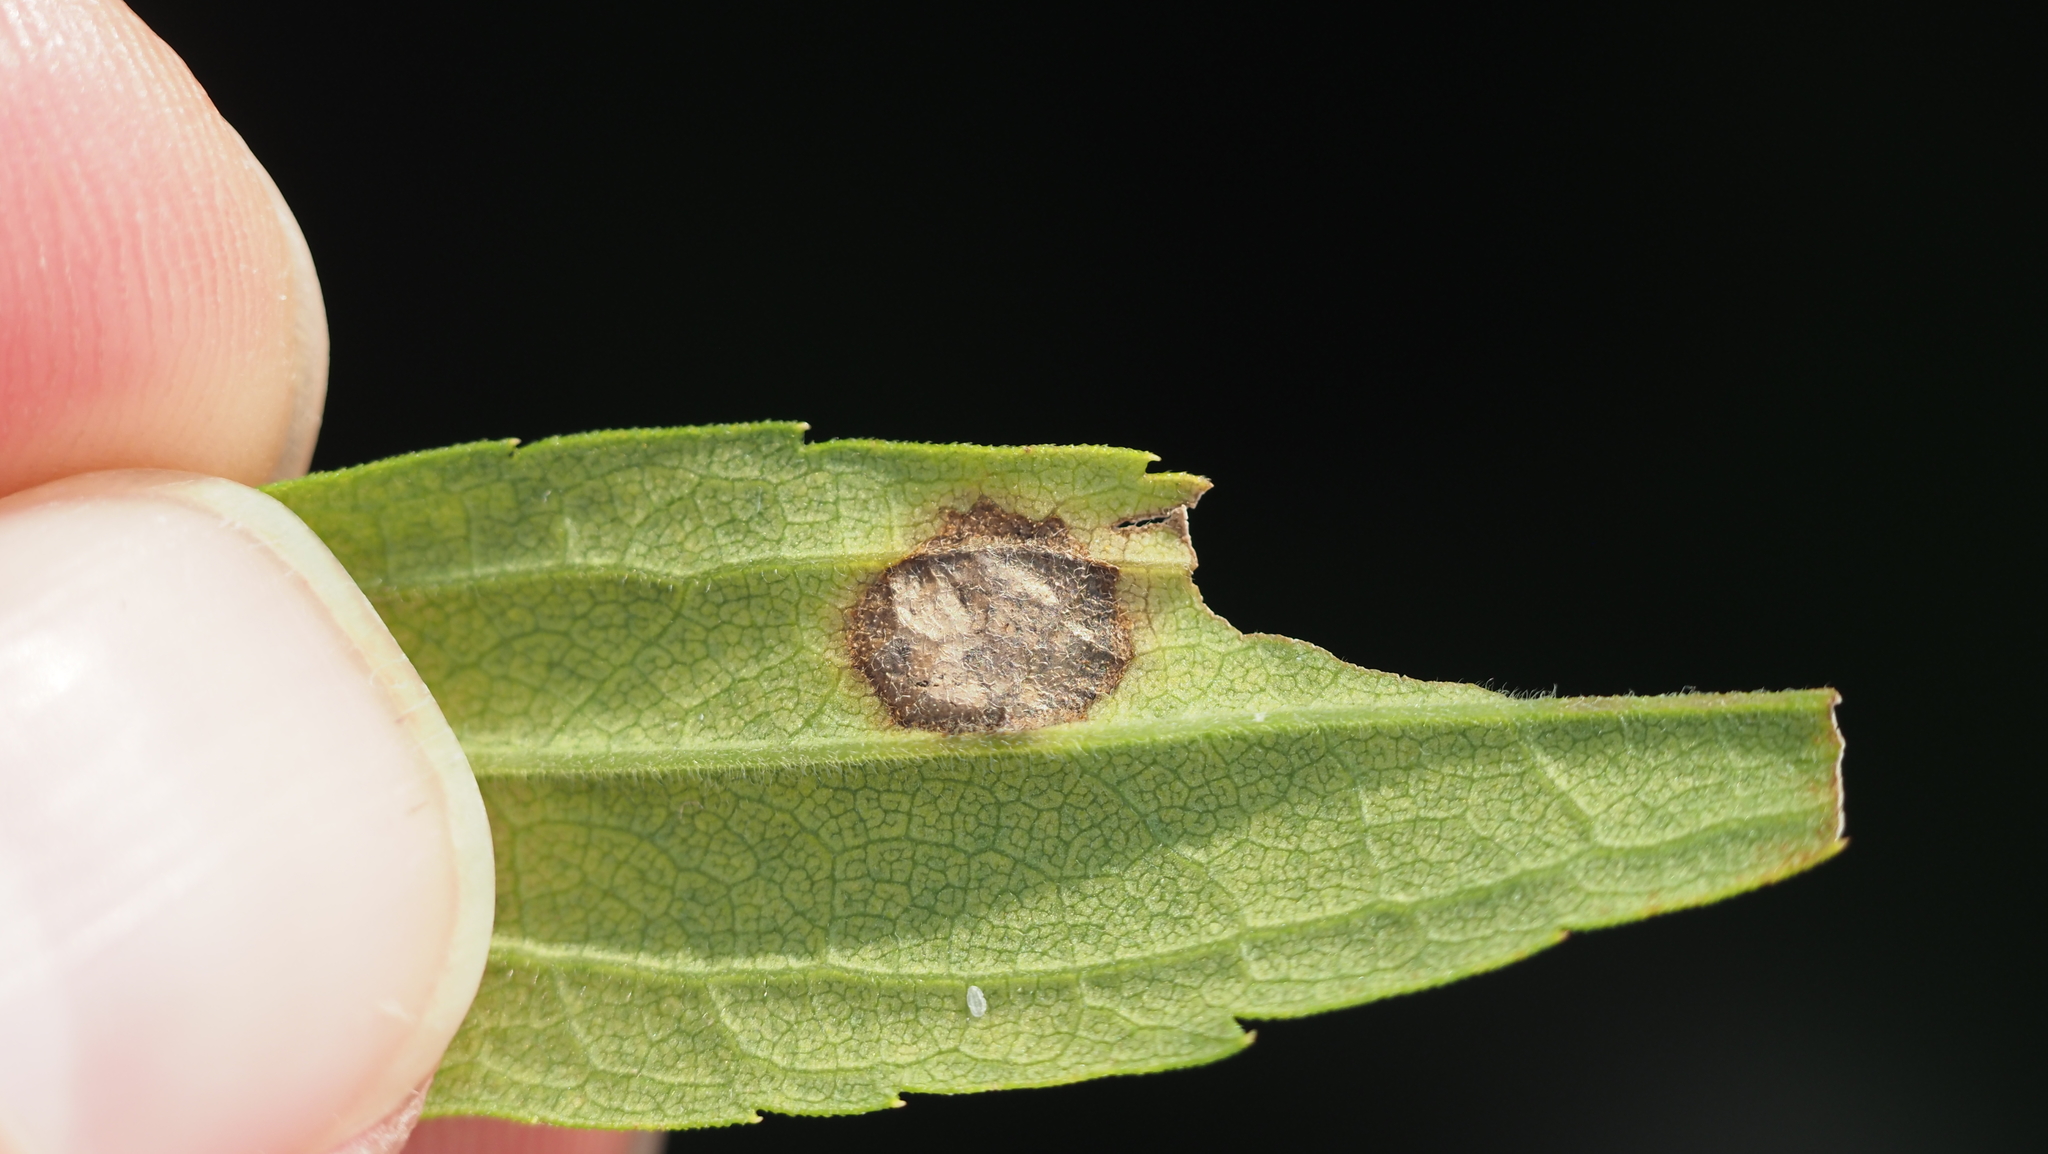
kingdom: Animalia
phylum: Arthropoda
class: Insecta
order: Diptera
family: Cecidomyiidae
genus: Asteromyia
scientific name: Asteromyia carbonifera
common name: Carbonifera goldenrod gall midge
